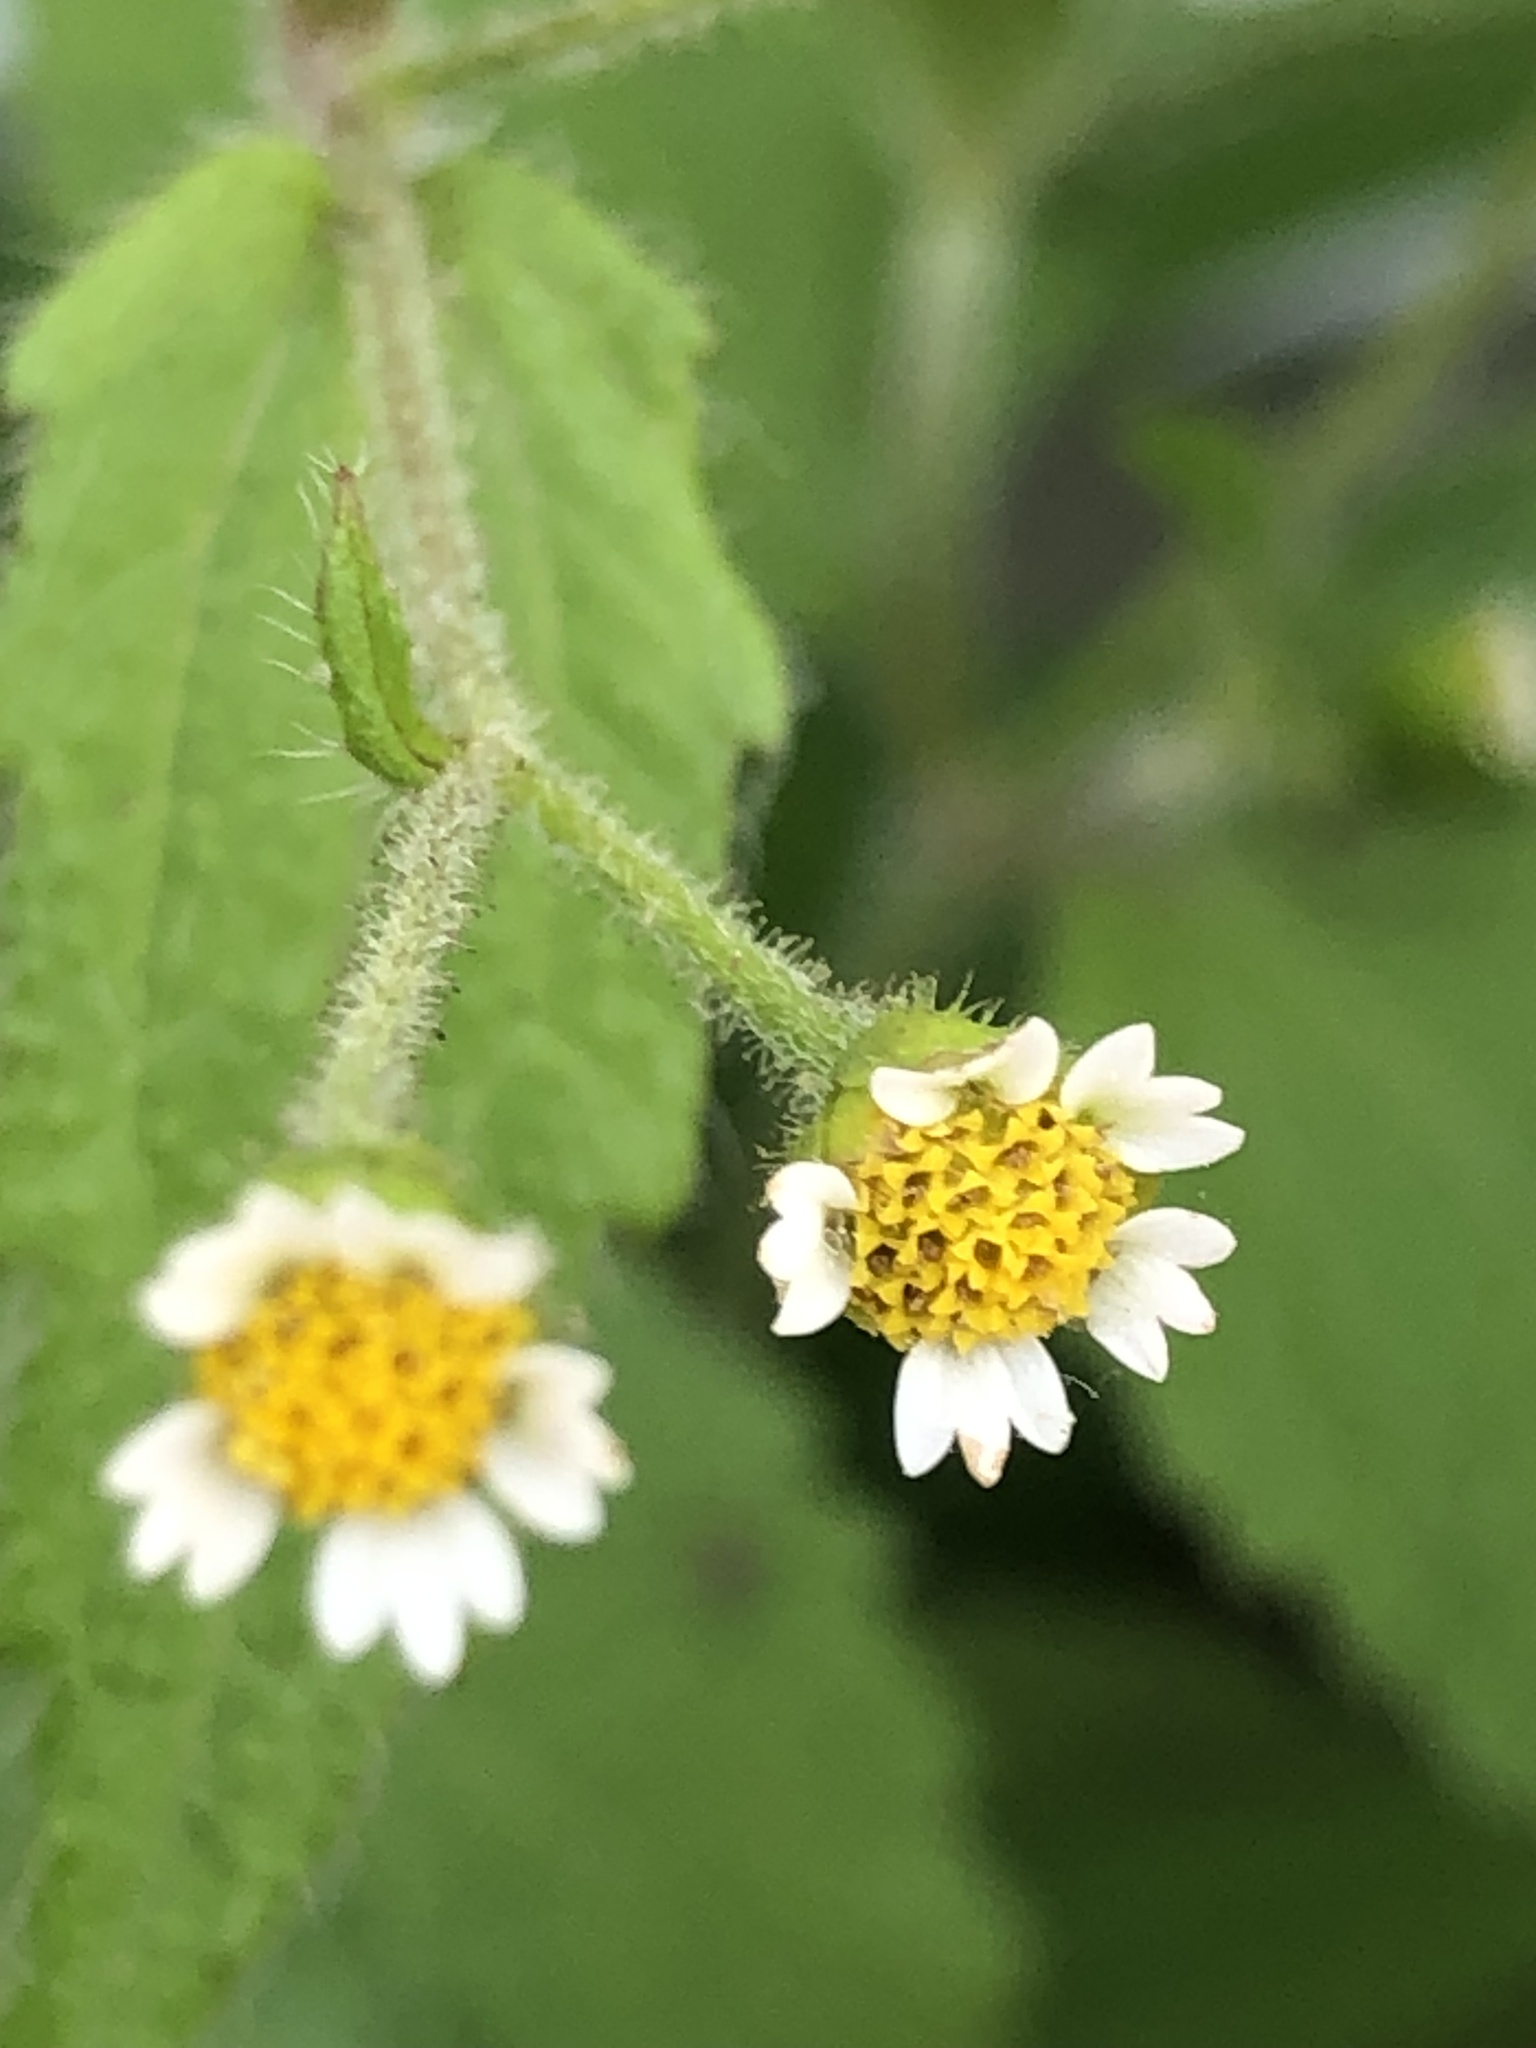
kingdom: Plantae
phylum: Tracheophyta
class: Magnoliopsida
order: Asterales
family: Asteraceae
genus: Galinsoga
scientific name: Galinsoga quadriradiata
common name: Shaggy soldier
